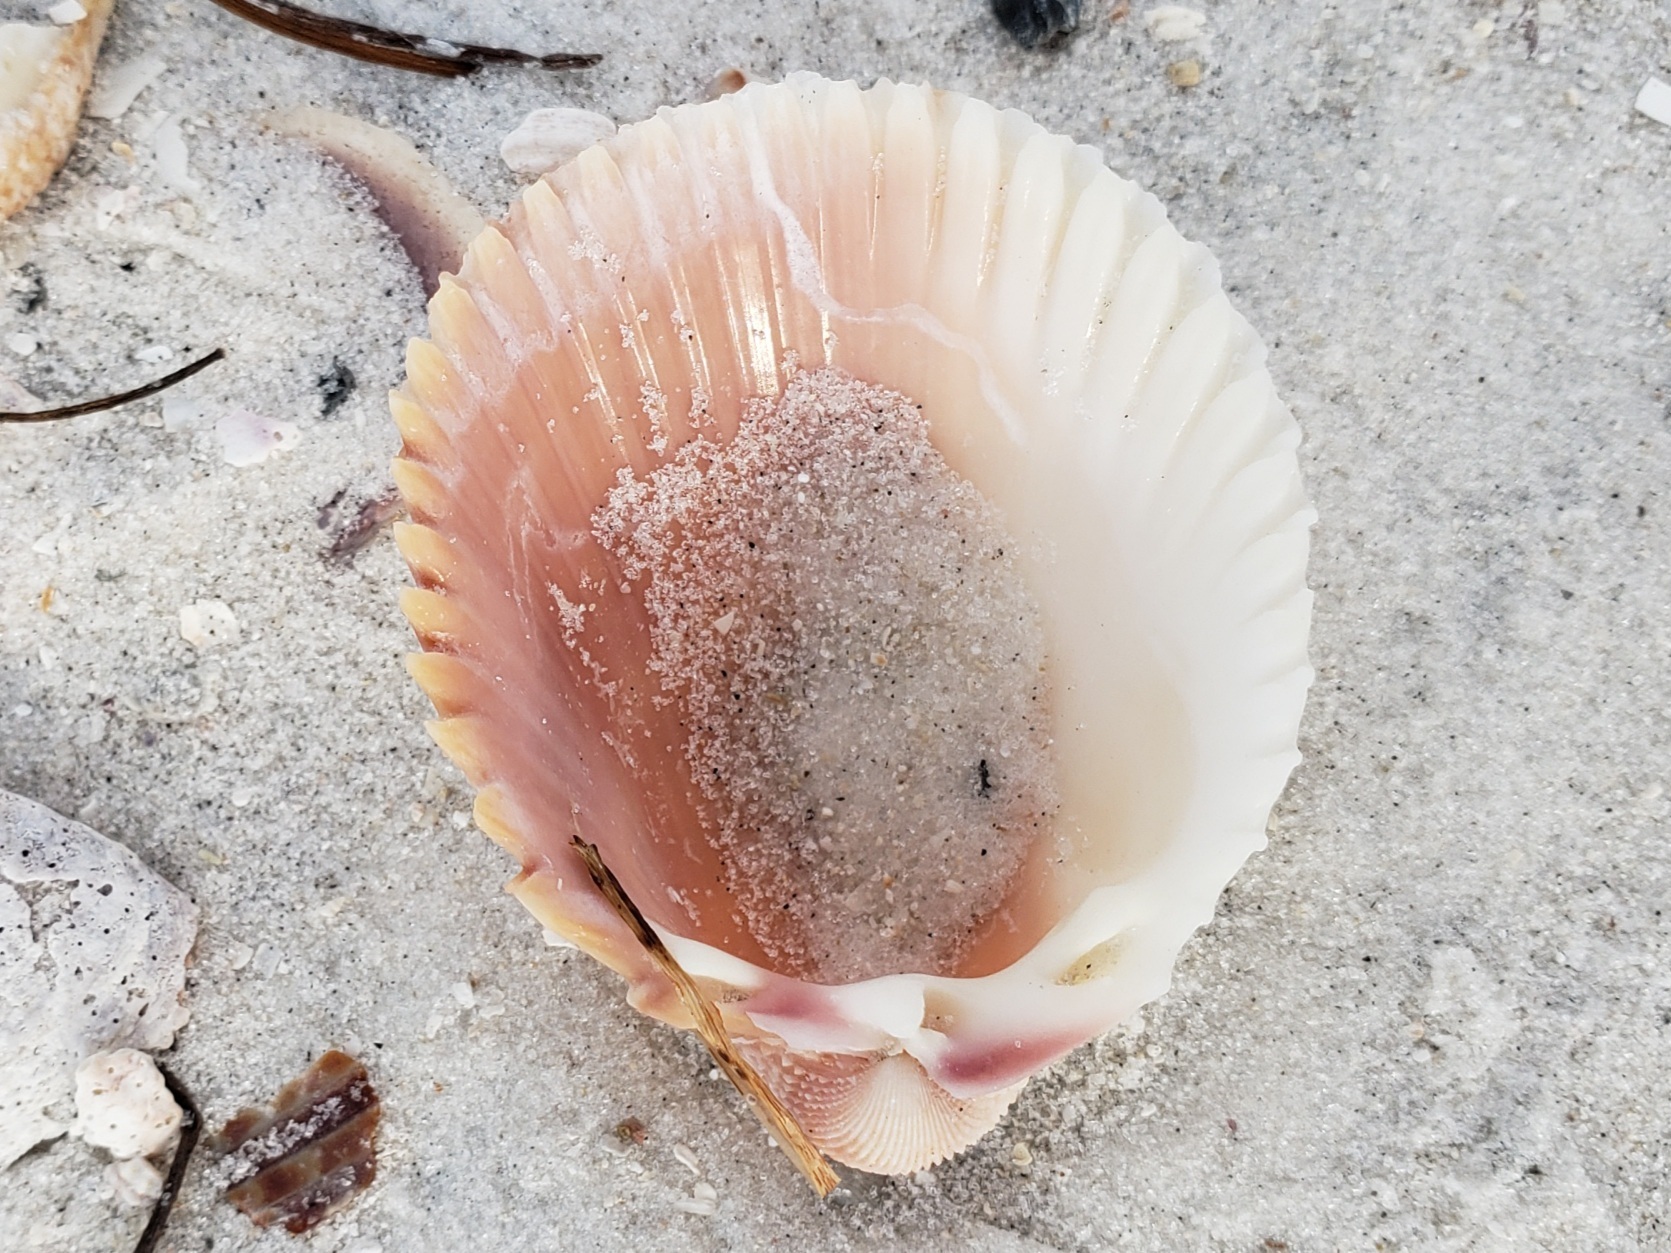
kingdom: Animalia
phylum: Mollusca
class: Bivalvia
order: Cardiida
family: Cardiidae
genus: Trachycardium
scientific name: Trachycardium egmontianum
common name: Florida pricklycockle
